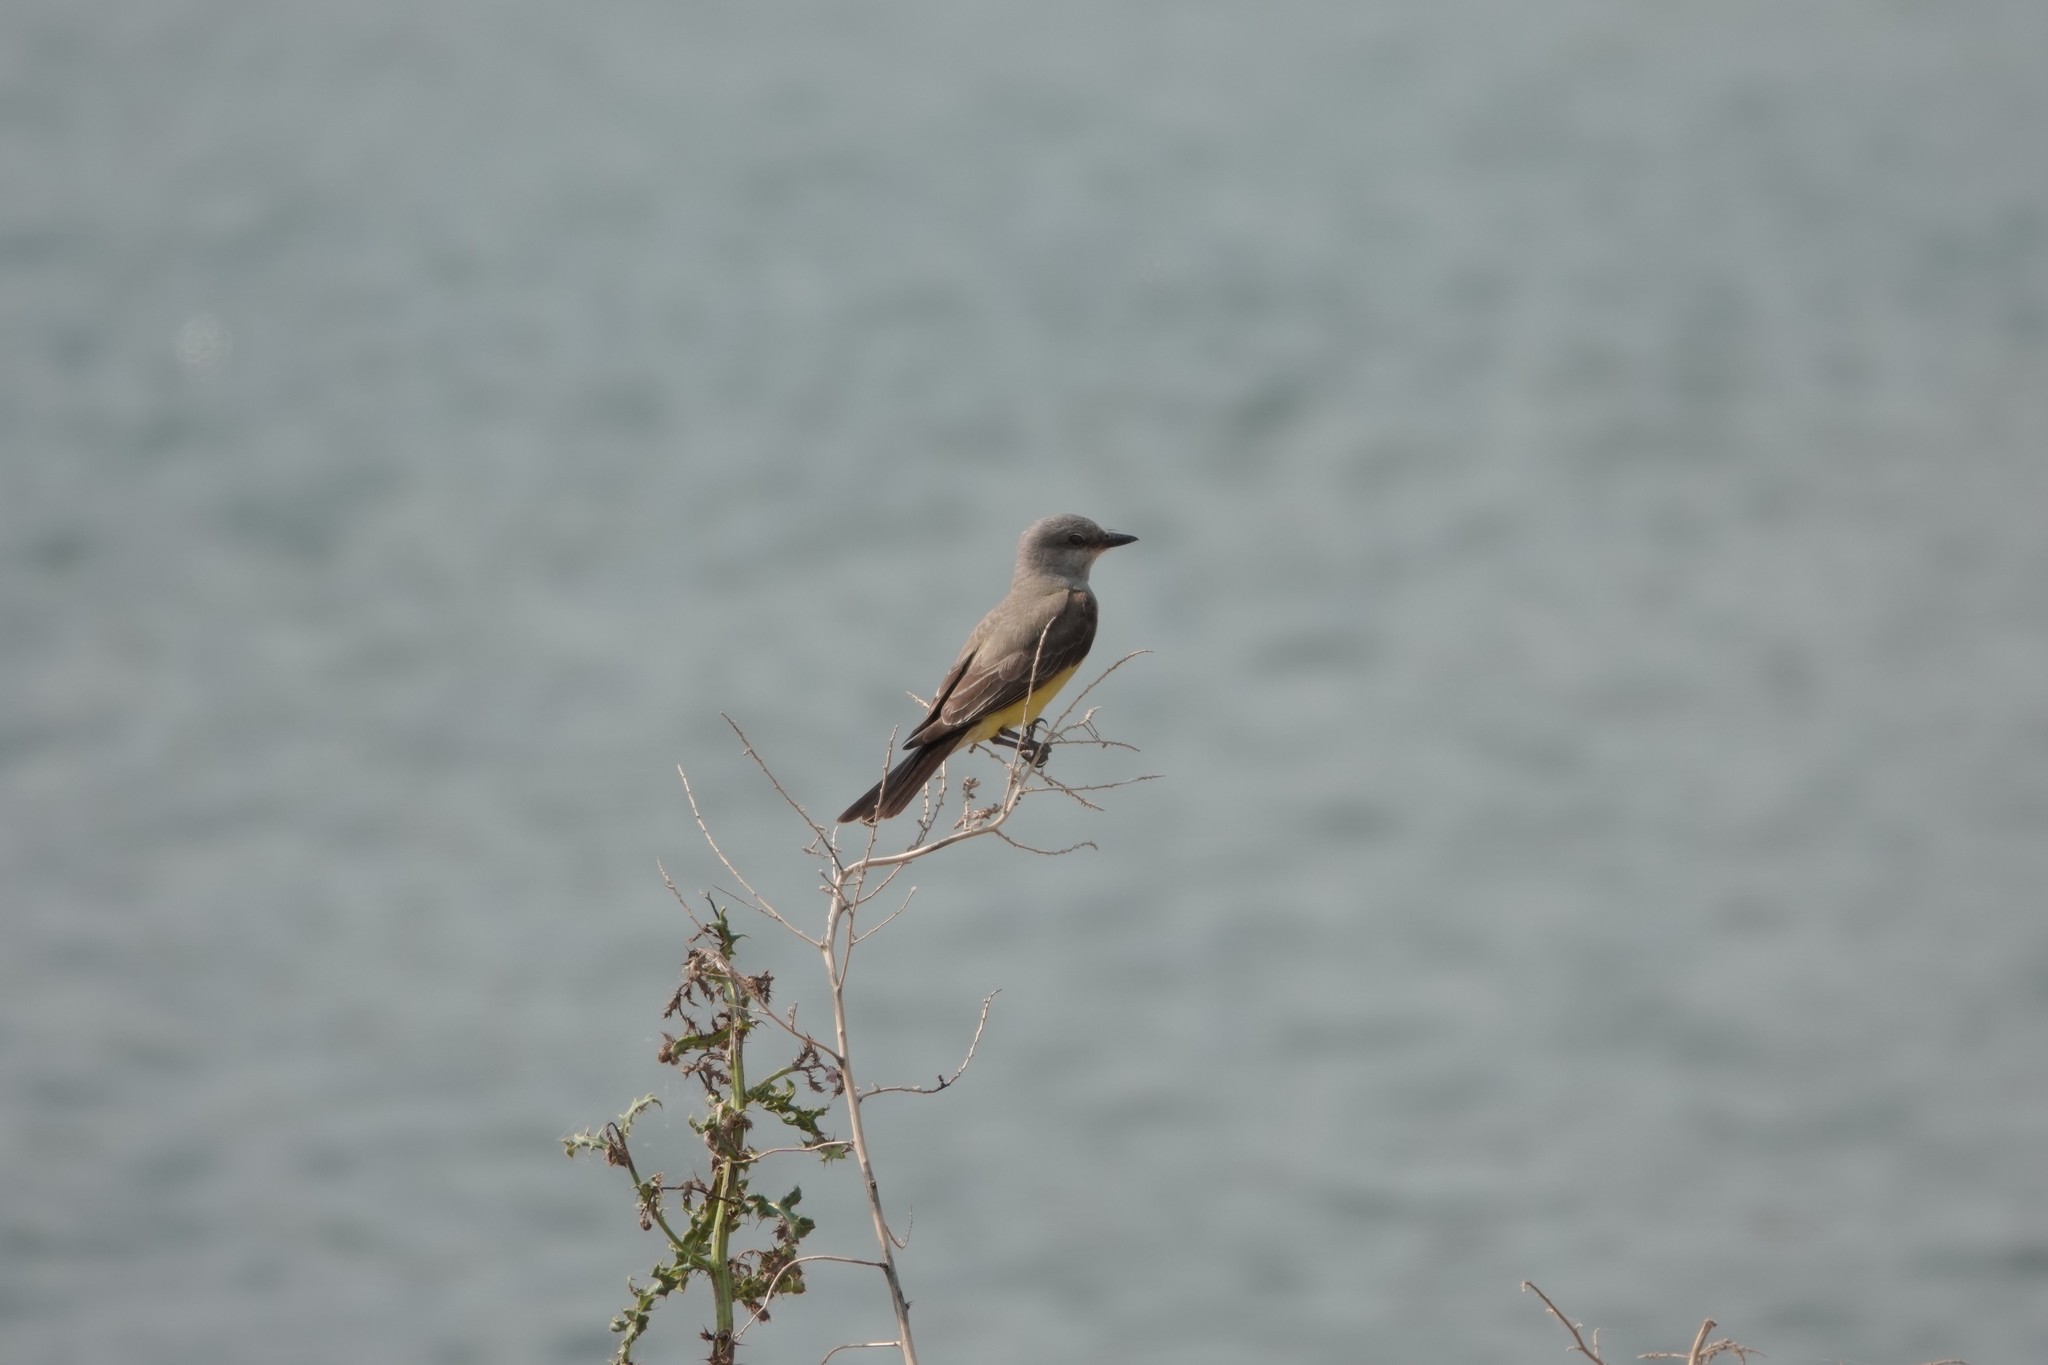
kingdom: Animalia
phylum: Chordata
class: Aves
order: Passeriformes
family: Tyrannidae
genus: Tyrannus
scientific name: Tyrannus verticalis
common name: Western kingbird
